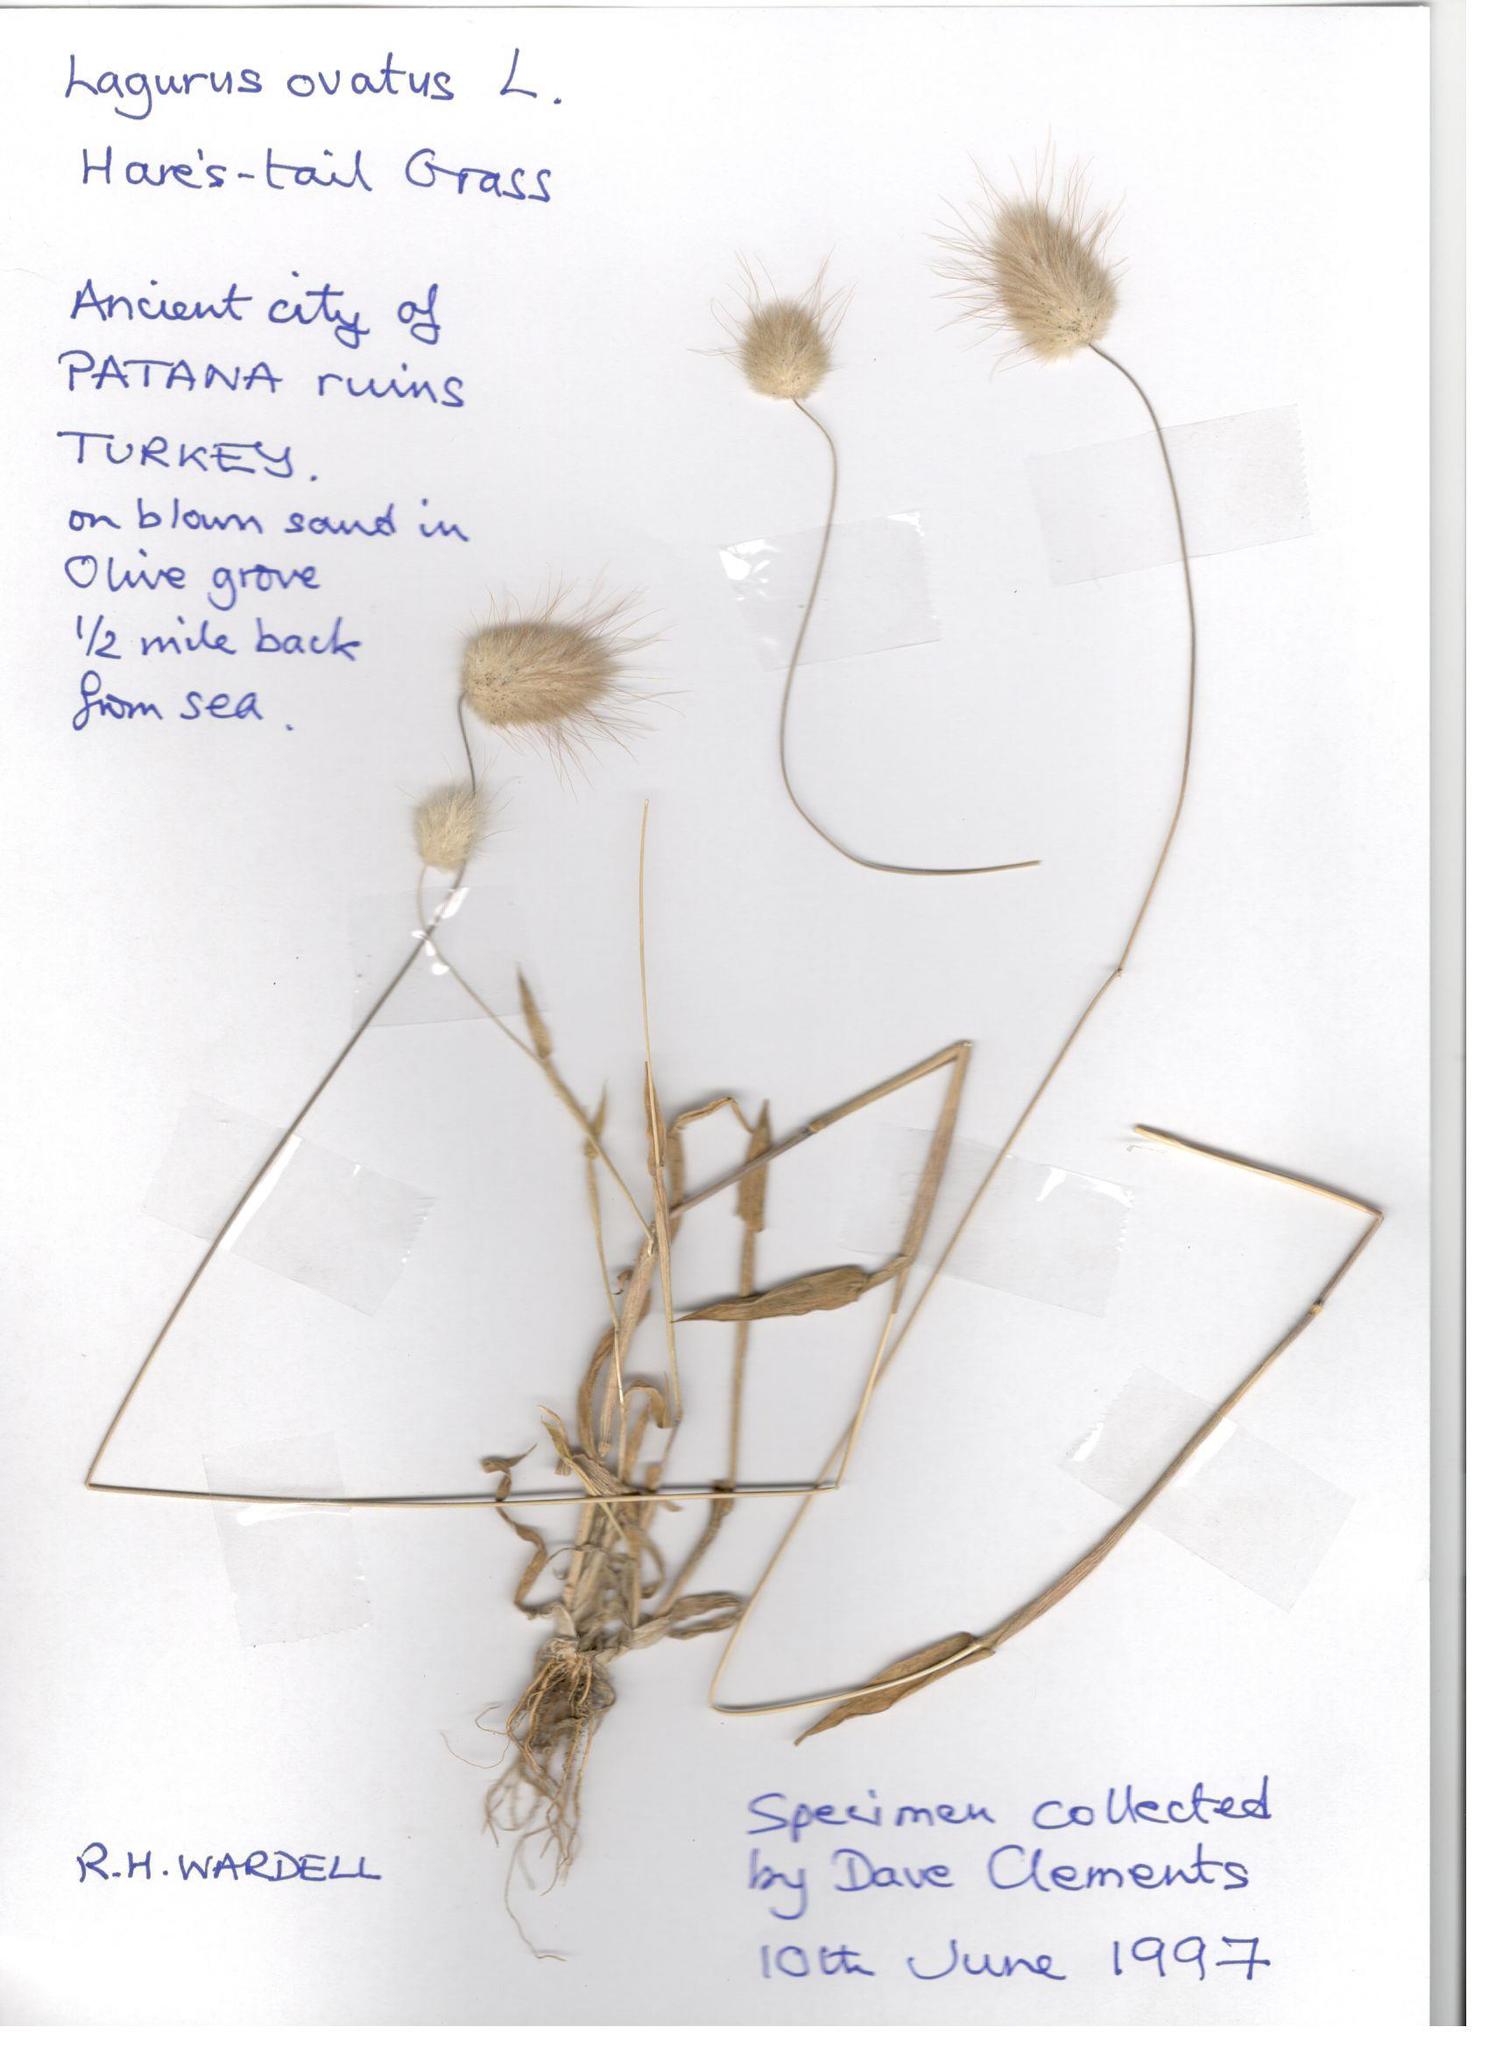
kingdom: Plantae
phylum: Tracheophyta
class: Liliopsida
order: Poales
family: Poaceae
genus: Lagurus
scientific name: Lagurus ovatus
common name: Hare's-tail
